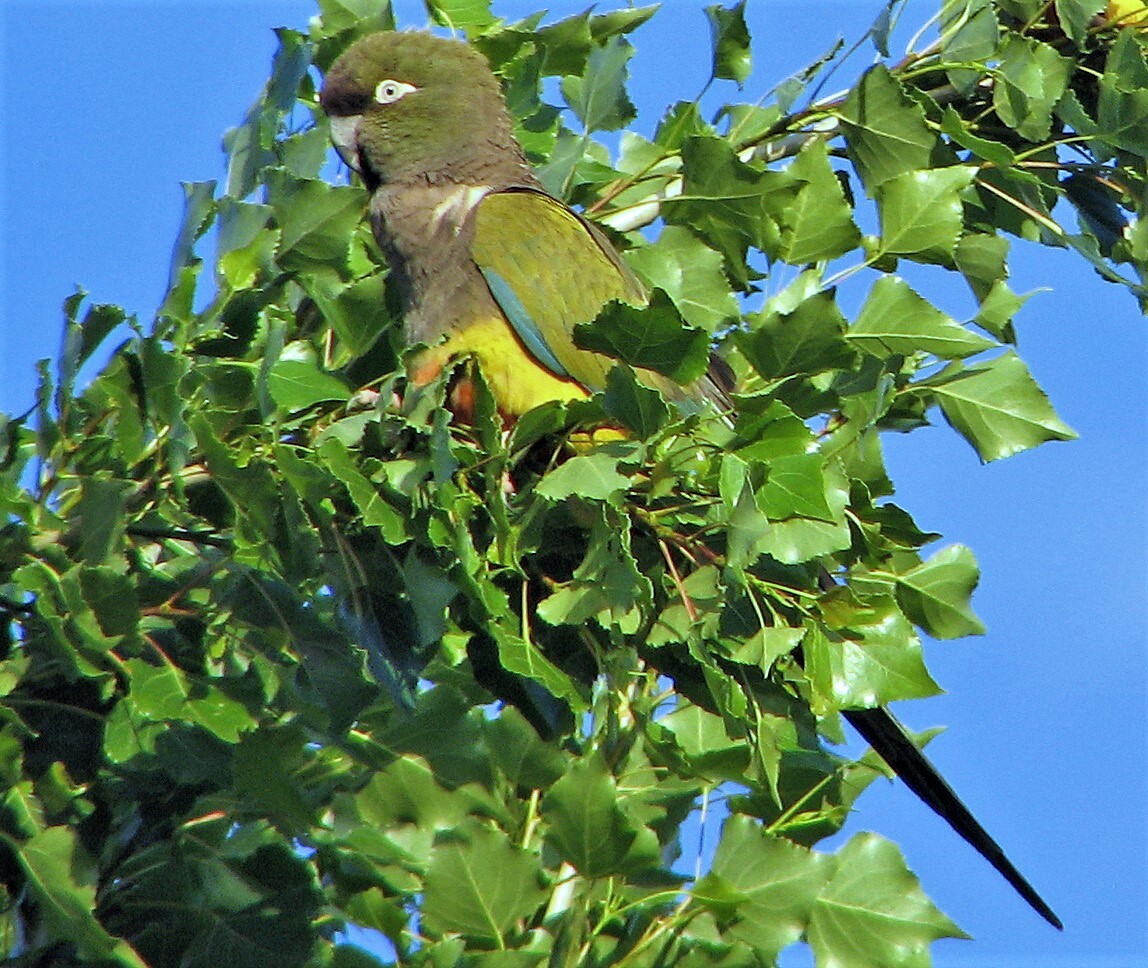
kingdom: Animalia
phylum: Chordata
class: Aves
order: Psittaciformes
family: Psittacidae
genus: Cyanoliseus
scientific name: Cyanoliseus patagonus
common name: Burrowing parrot
